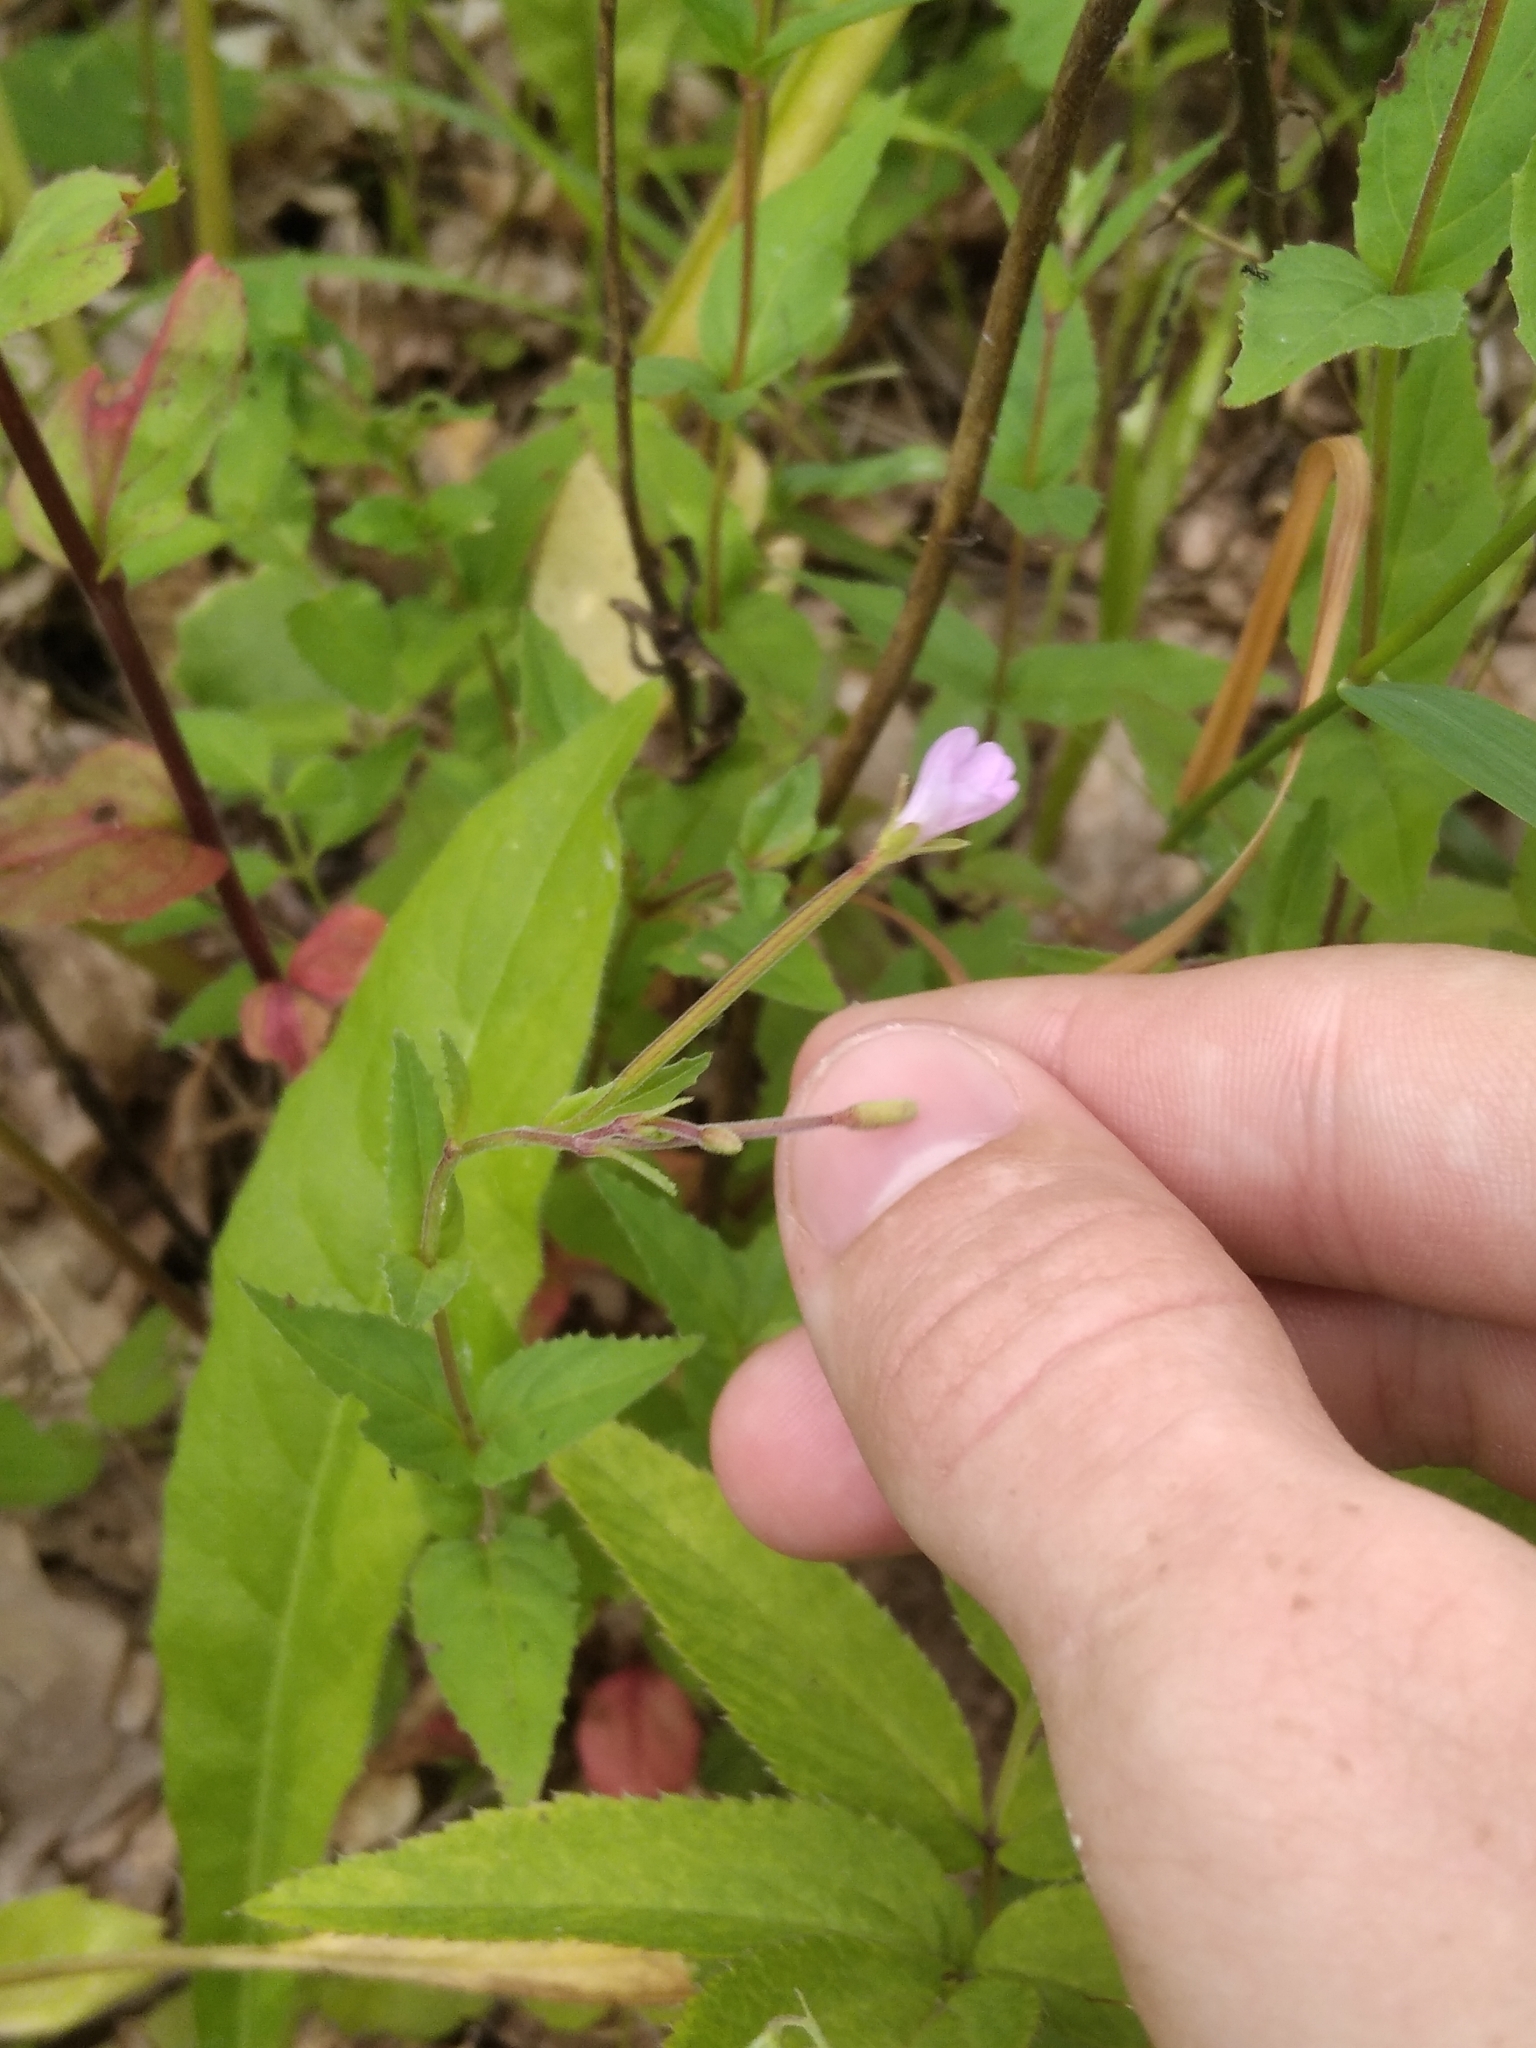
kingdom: Plantae
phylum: Tracheophyta
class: Magnoliopsida
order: Myrtales
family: Onagraceae
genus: Epilobium
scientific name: Epilobium montanum
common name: Broad-leaved willowherb
